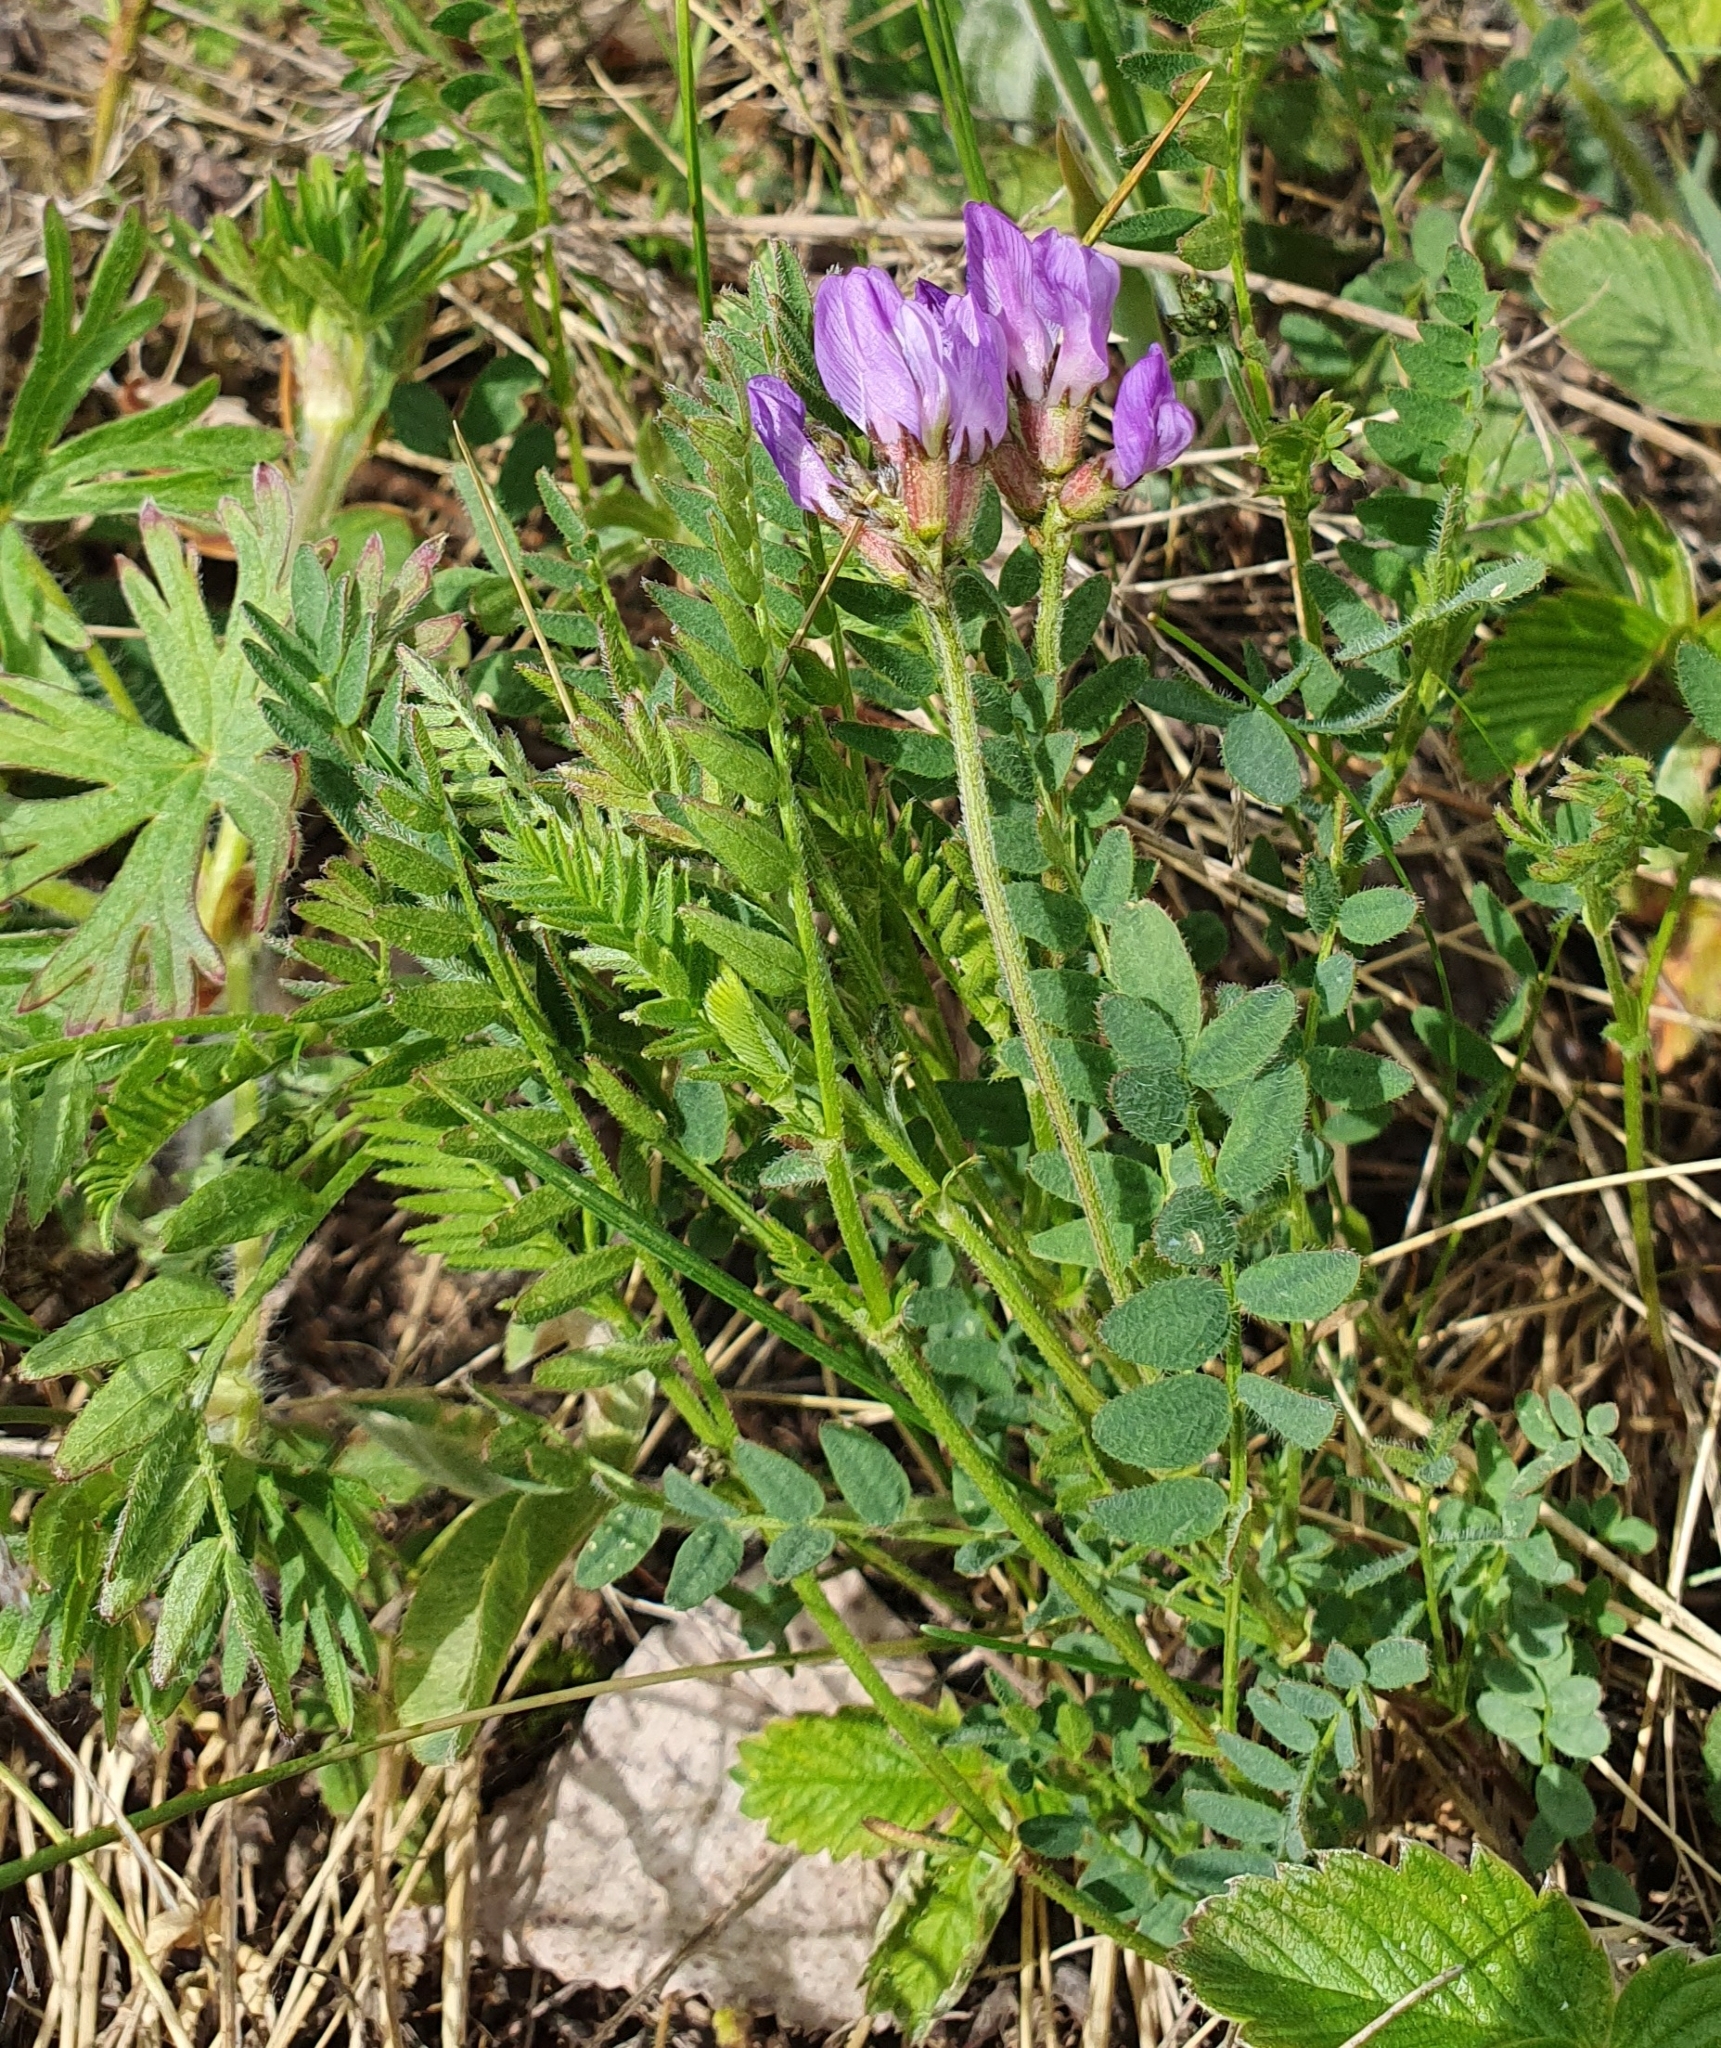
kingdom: Plantae
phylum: Tracheophyta
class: Magnoliopsida
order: Fabales
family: Fabaceae
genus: Astragalus
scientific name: Astragalus danicus
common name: Purple milk-vetch
